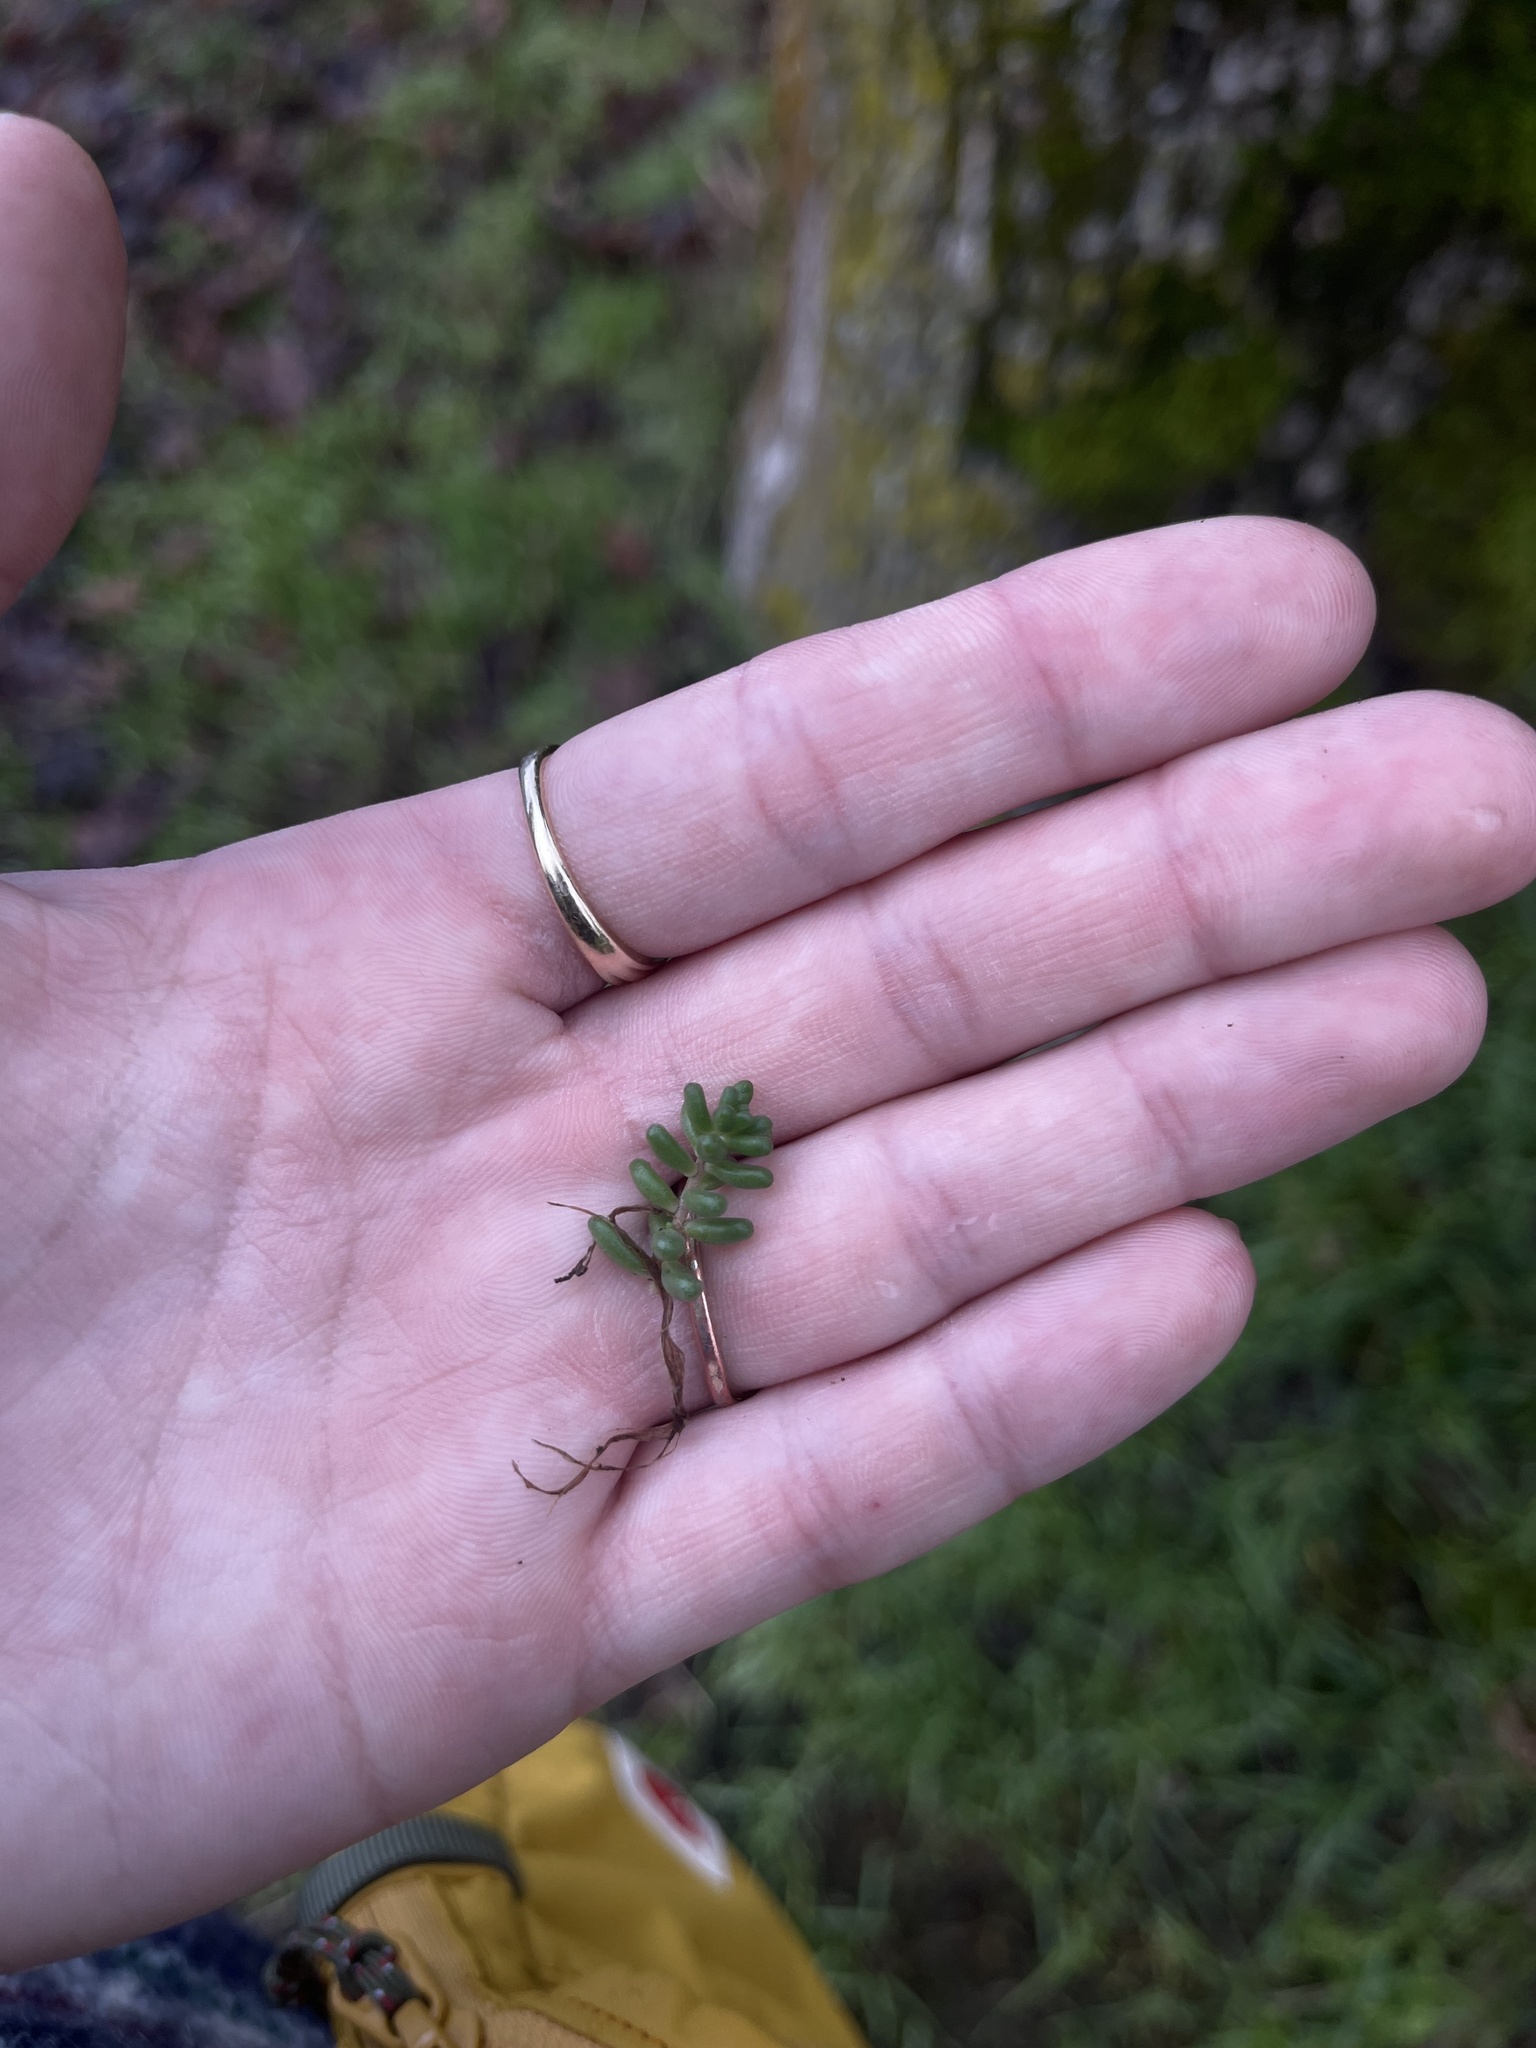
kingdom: Plantae
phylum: Tracheophyta
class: Magnoliopsida
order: Saxifragales
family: Crassulaceae
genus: Sedum
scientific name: Sedum album
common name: White stonecrop
